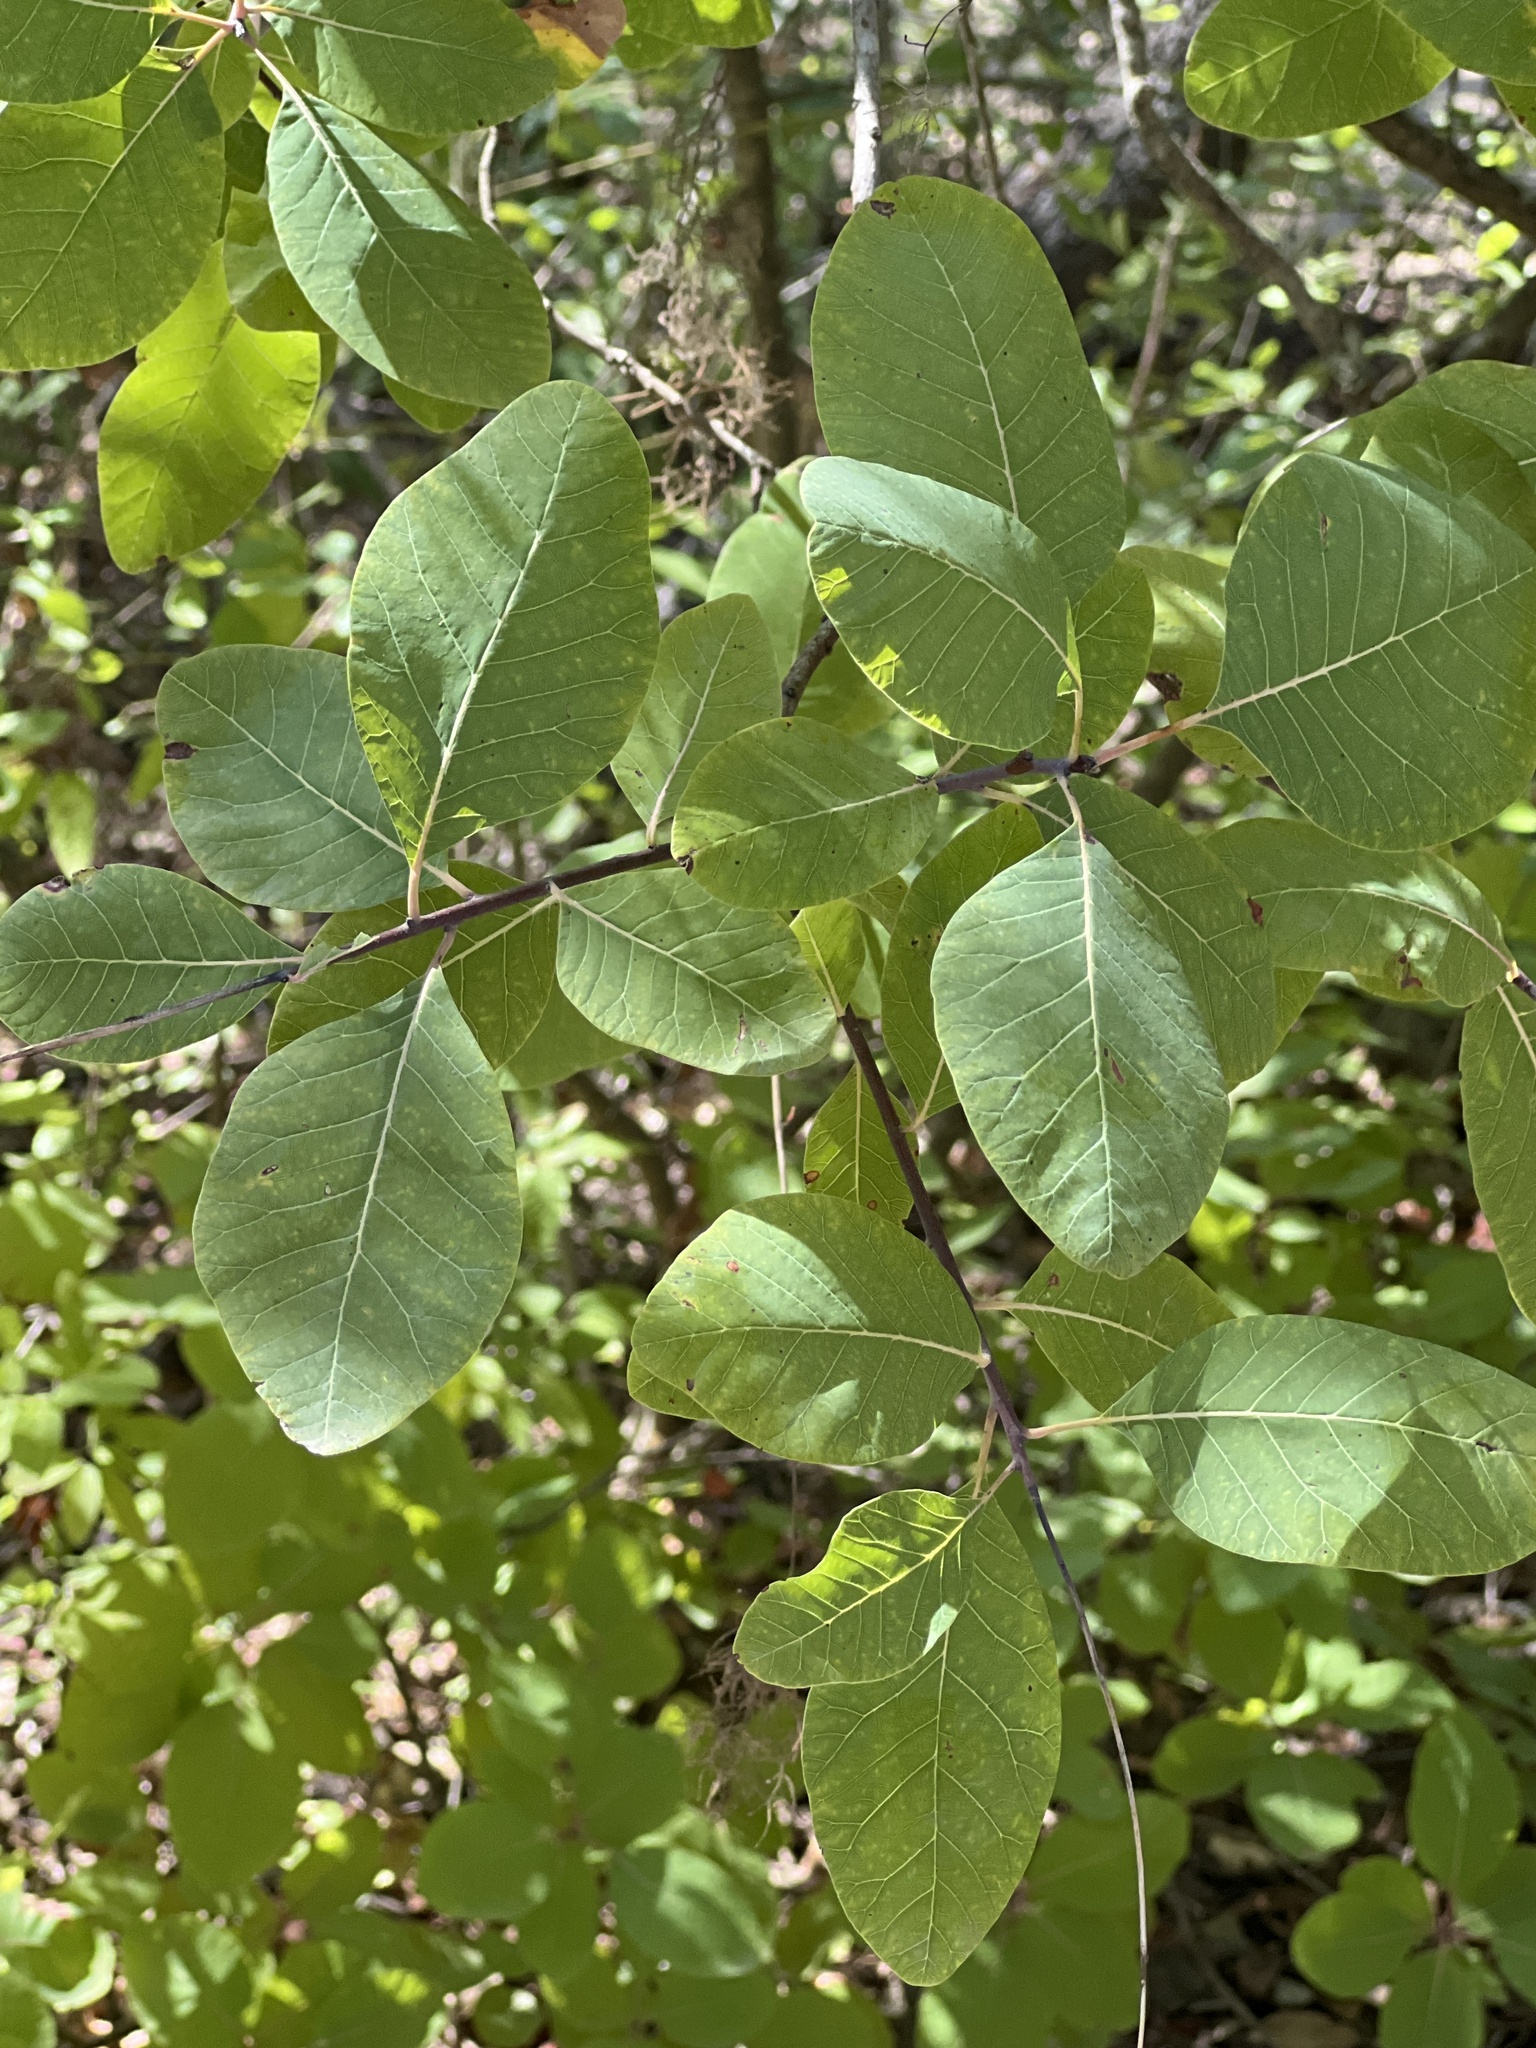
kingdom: Plantae
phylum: Tracheophyta
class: Magnoliopsida
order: Sapindales
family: Anacardiaceae
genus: Cotinus
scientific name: Cotinus obovatus
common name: Chittamwood
